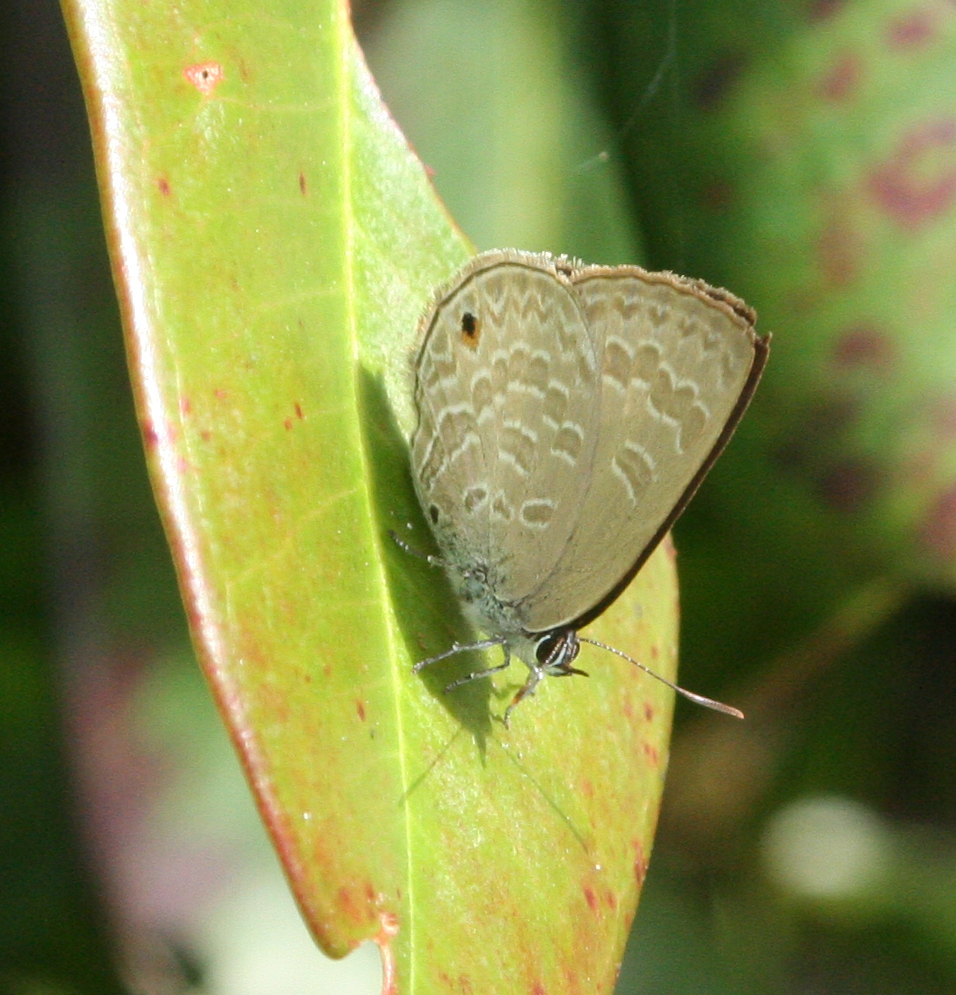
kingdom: Animalia
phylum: Arthropoda
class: Insecta
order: Lepidoptera
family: Lycaenidae
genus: Anthene
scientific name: Anthene emolus
